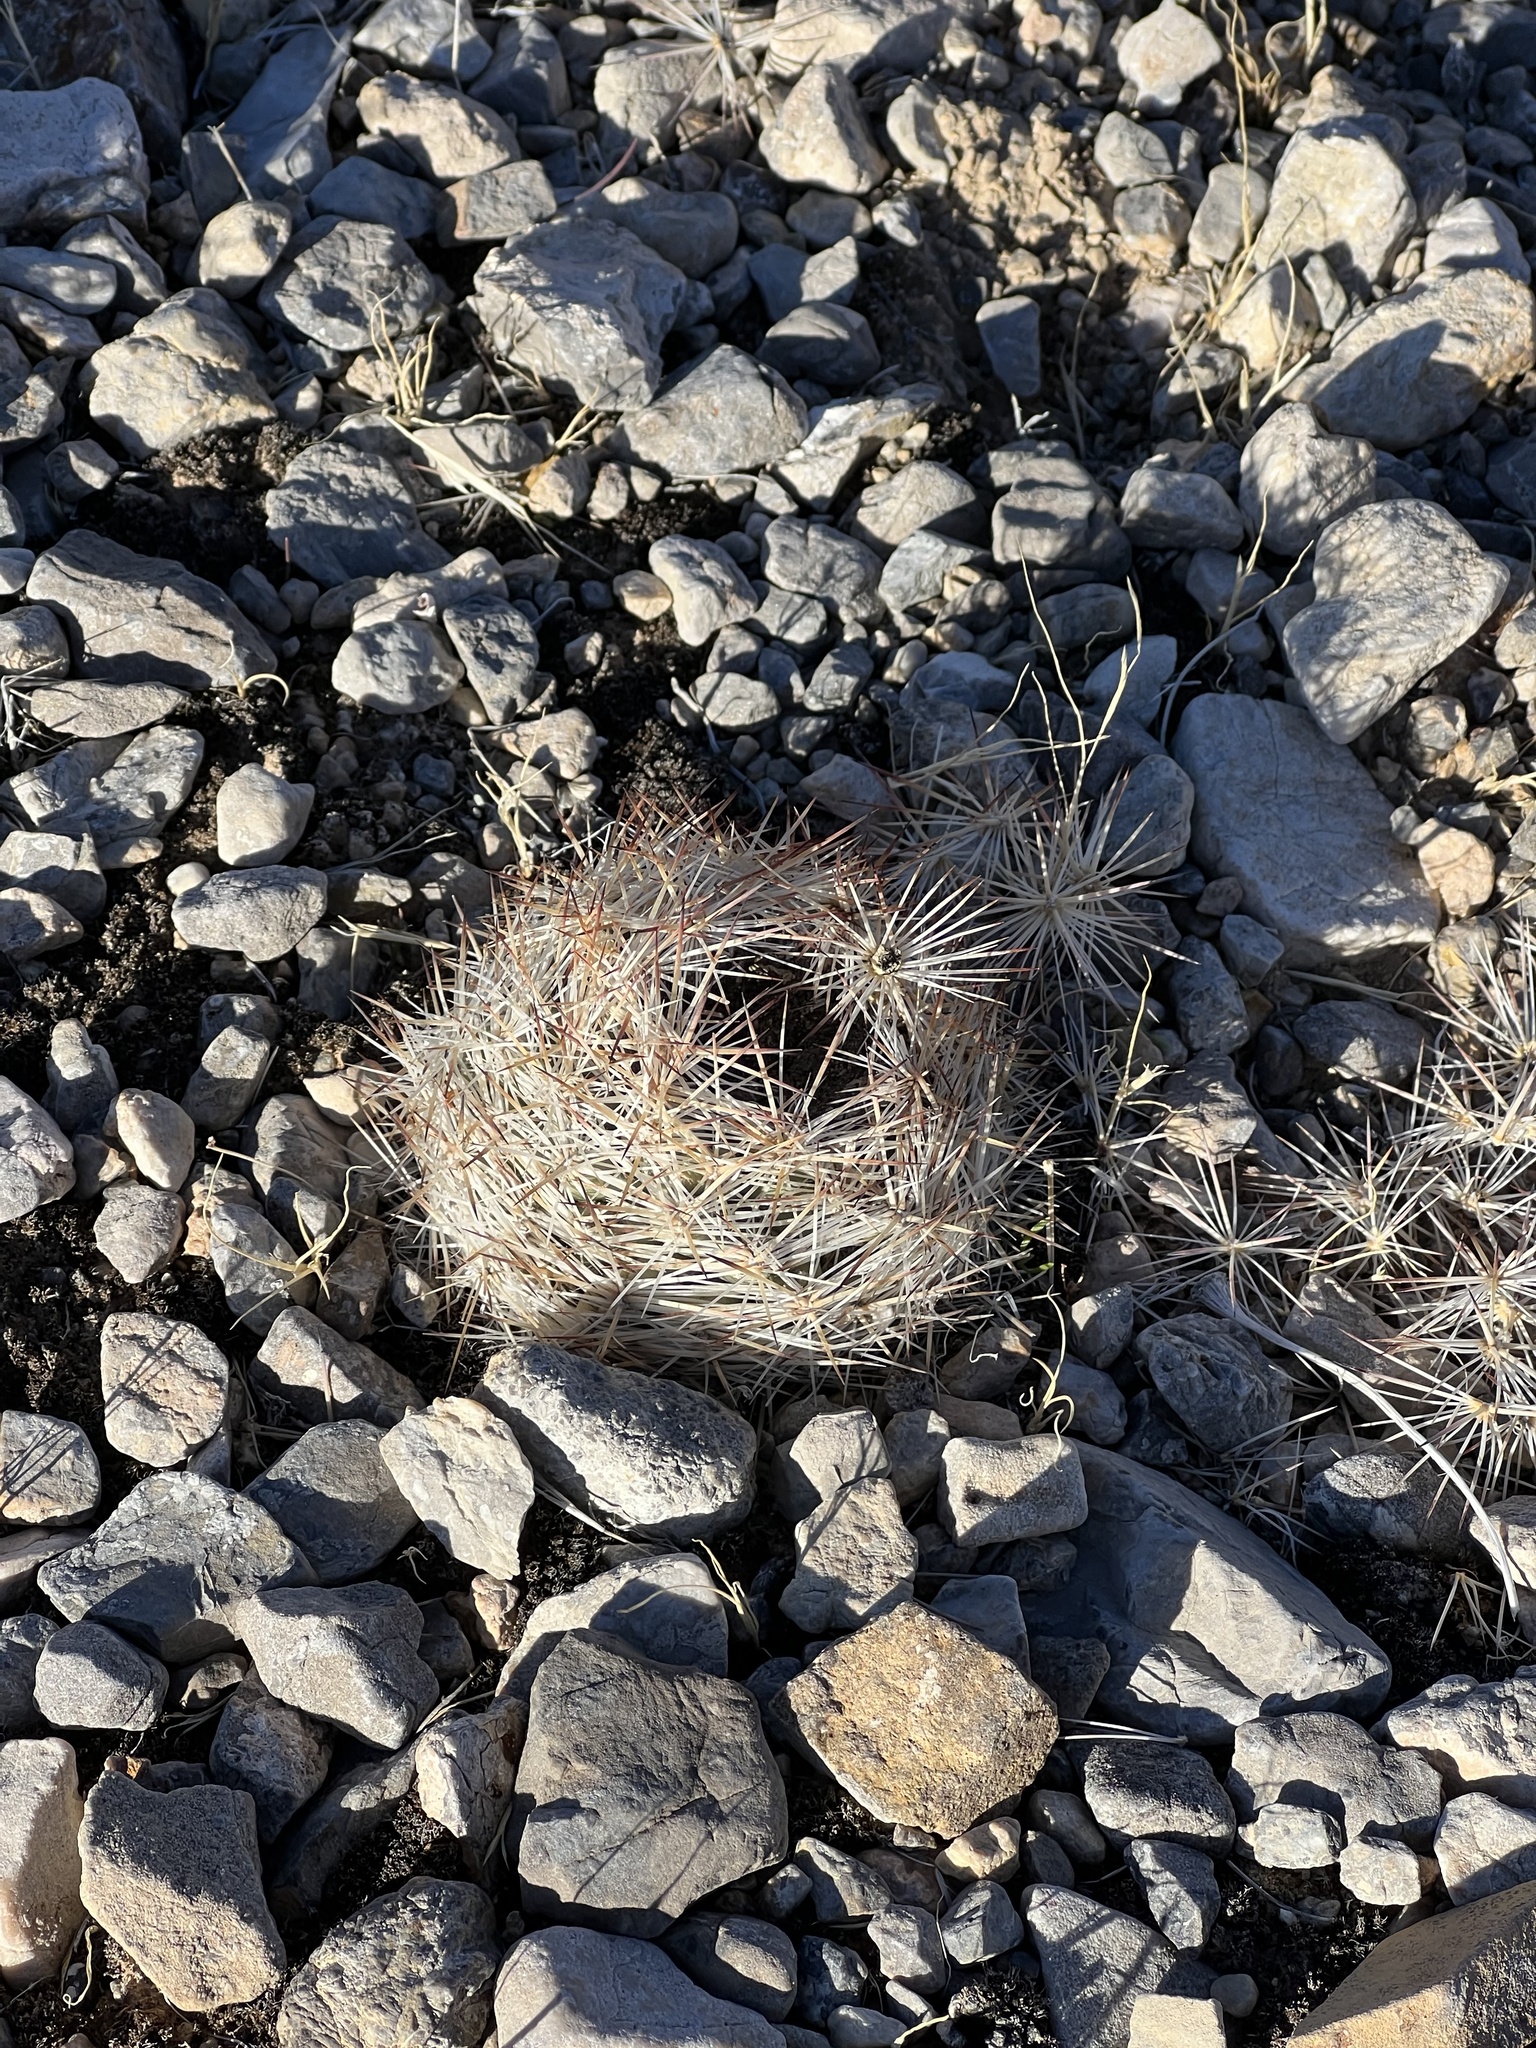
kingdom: Plantae
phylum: Tracheophyta
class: Magnoliopsida
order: Caryophyllales
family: Cactaceae
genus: Pelecyphora
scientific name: Pelecyphora dasyacantha
